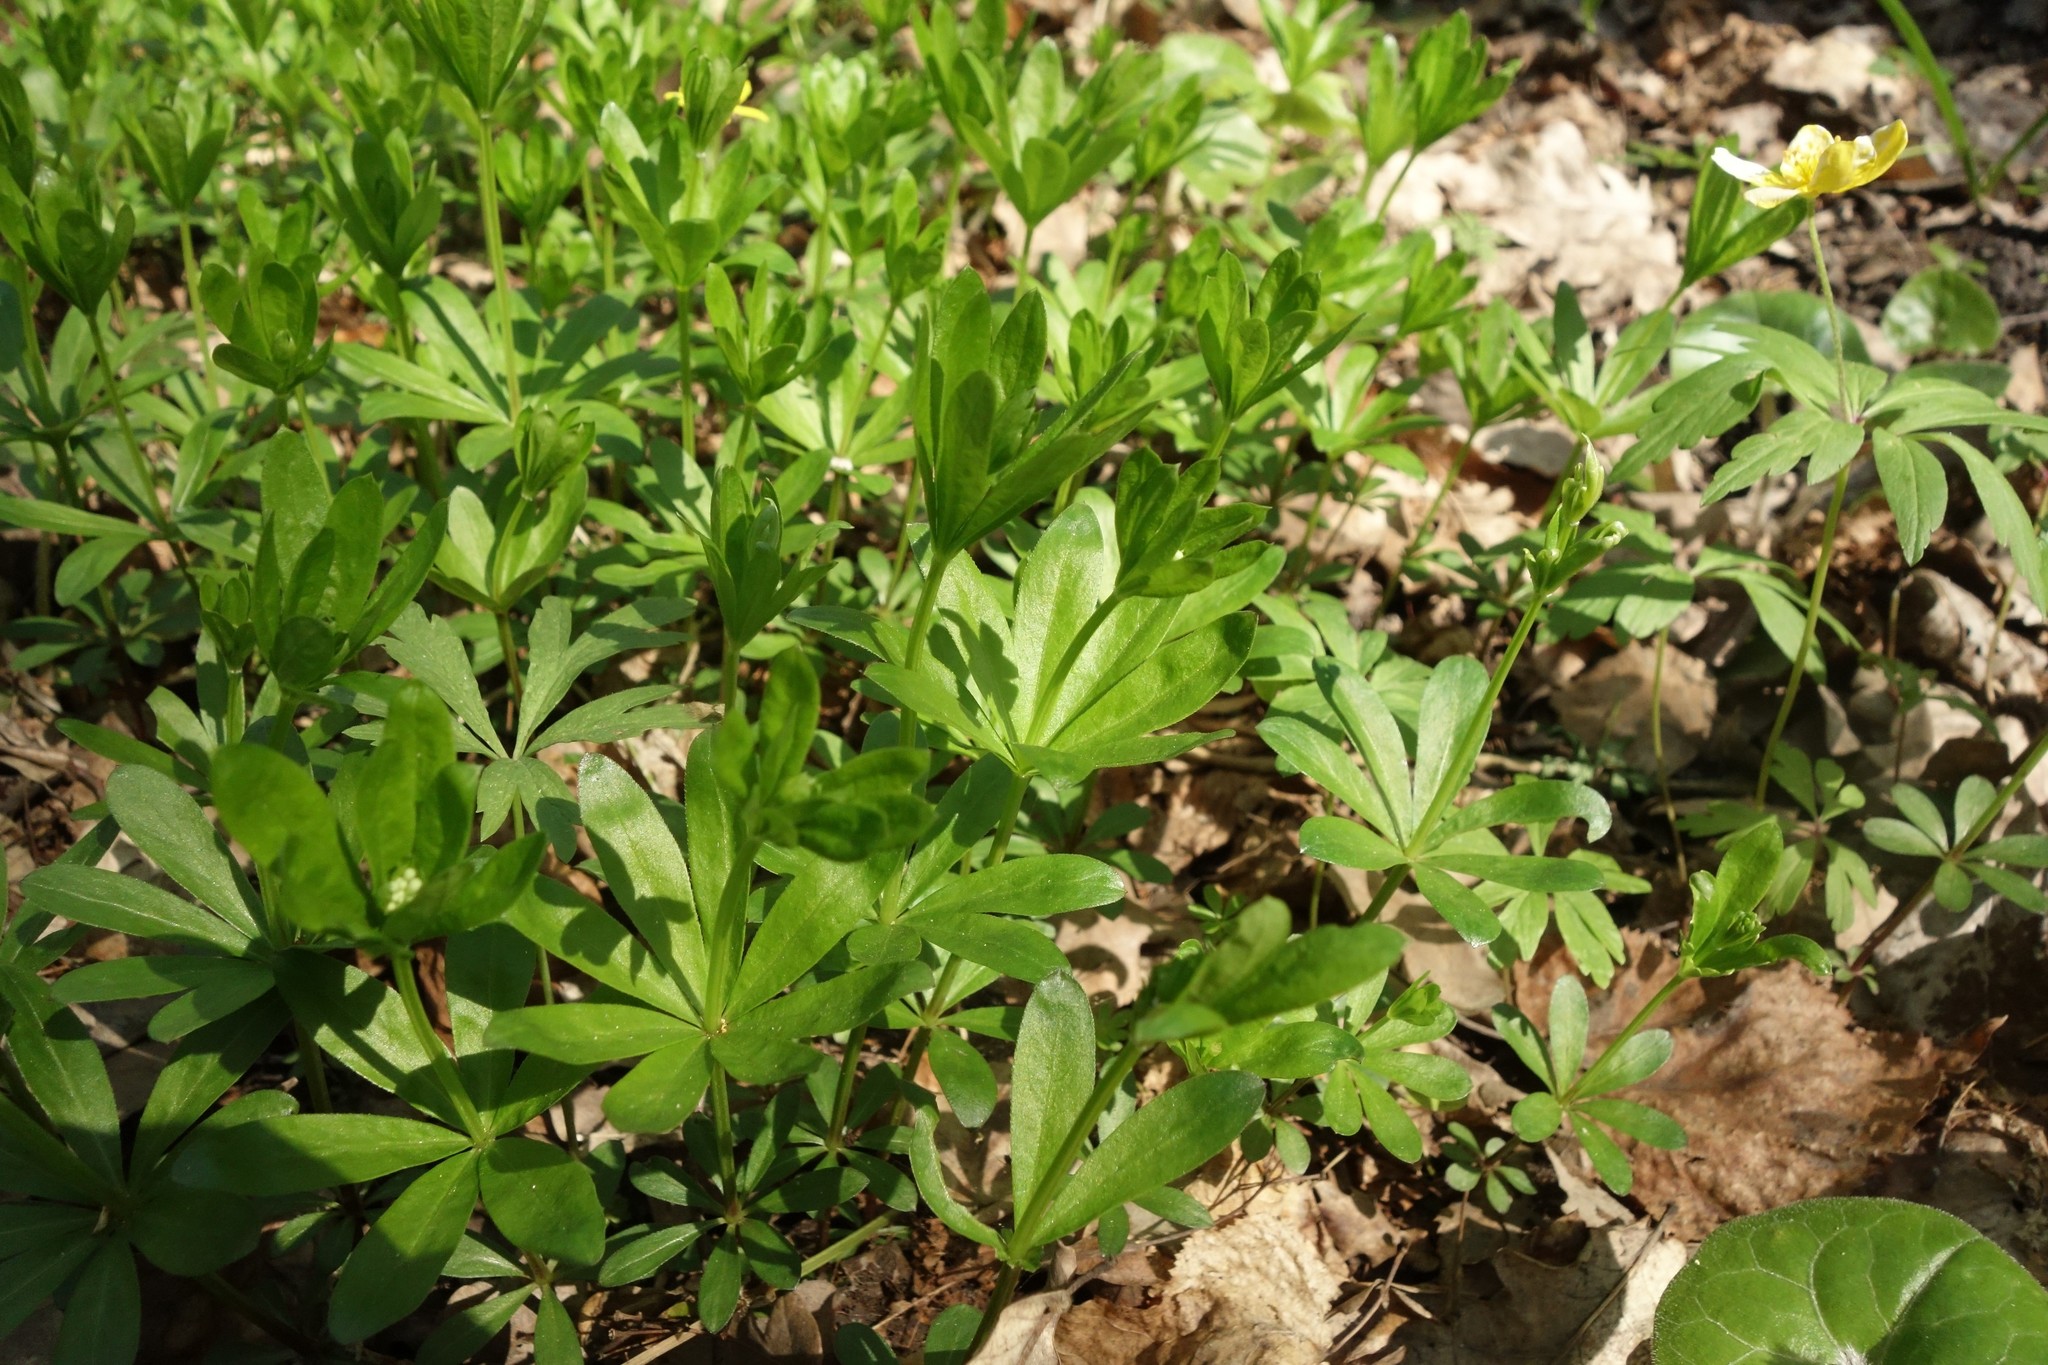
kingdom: Plantae
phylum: Tracheophyta
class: Magnoliopsida
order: Gentianales
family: Rubiaceae
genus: Galium
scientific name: Galium odoratum
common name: Sweet woodruff
